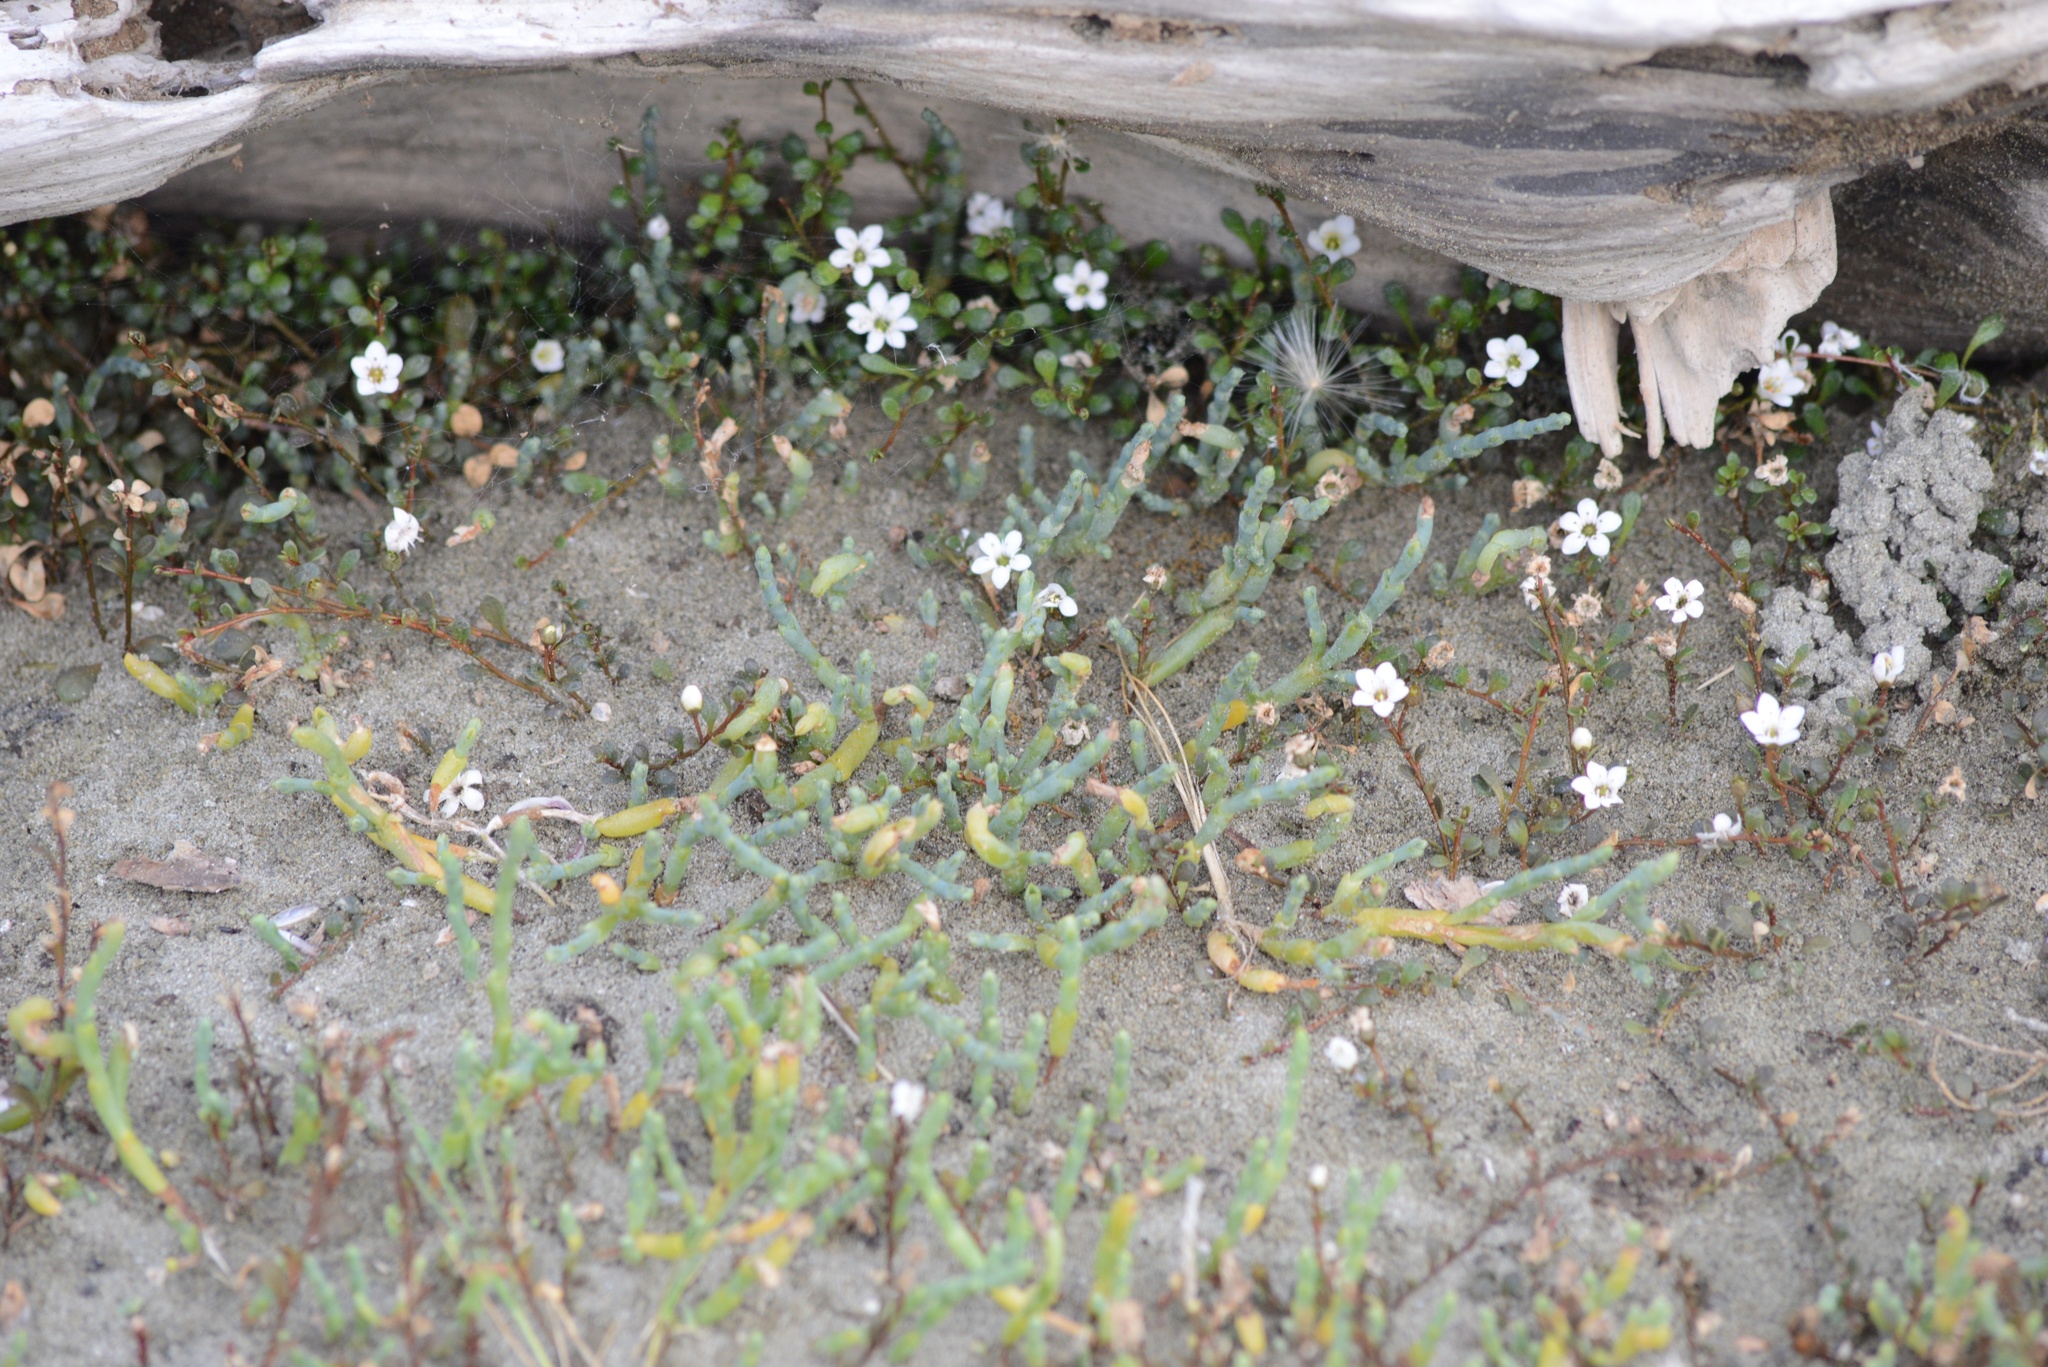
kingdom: Plantae
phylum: Tracheophyta
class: Magnoliopsida
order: Ericales
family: Primulaceae
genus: Samolus
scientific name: Samolus repens
